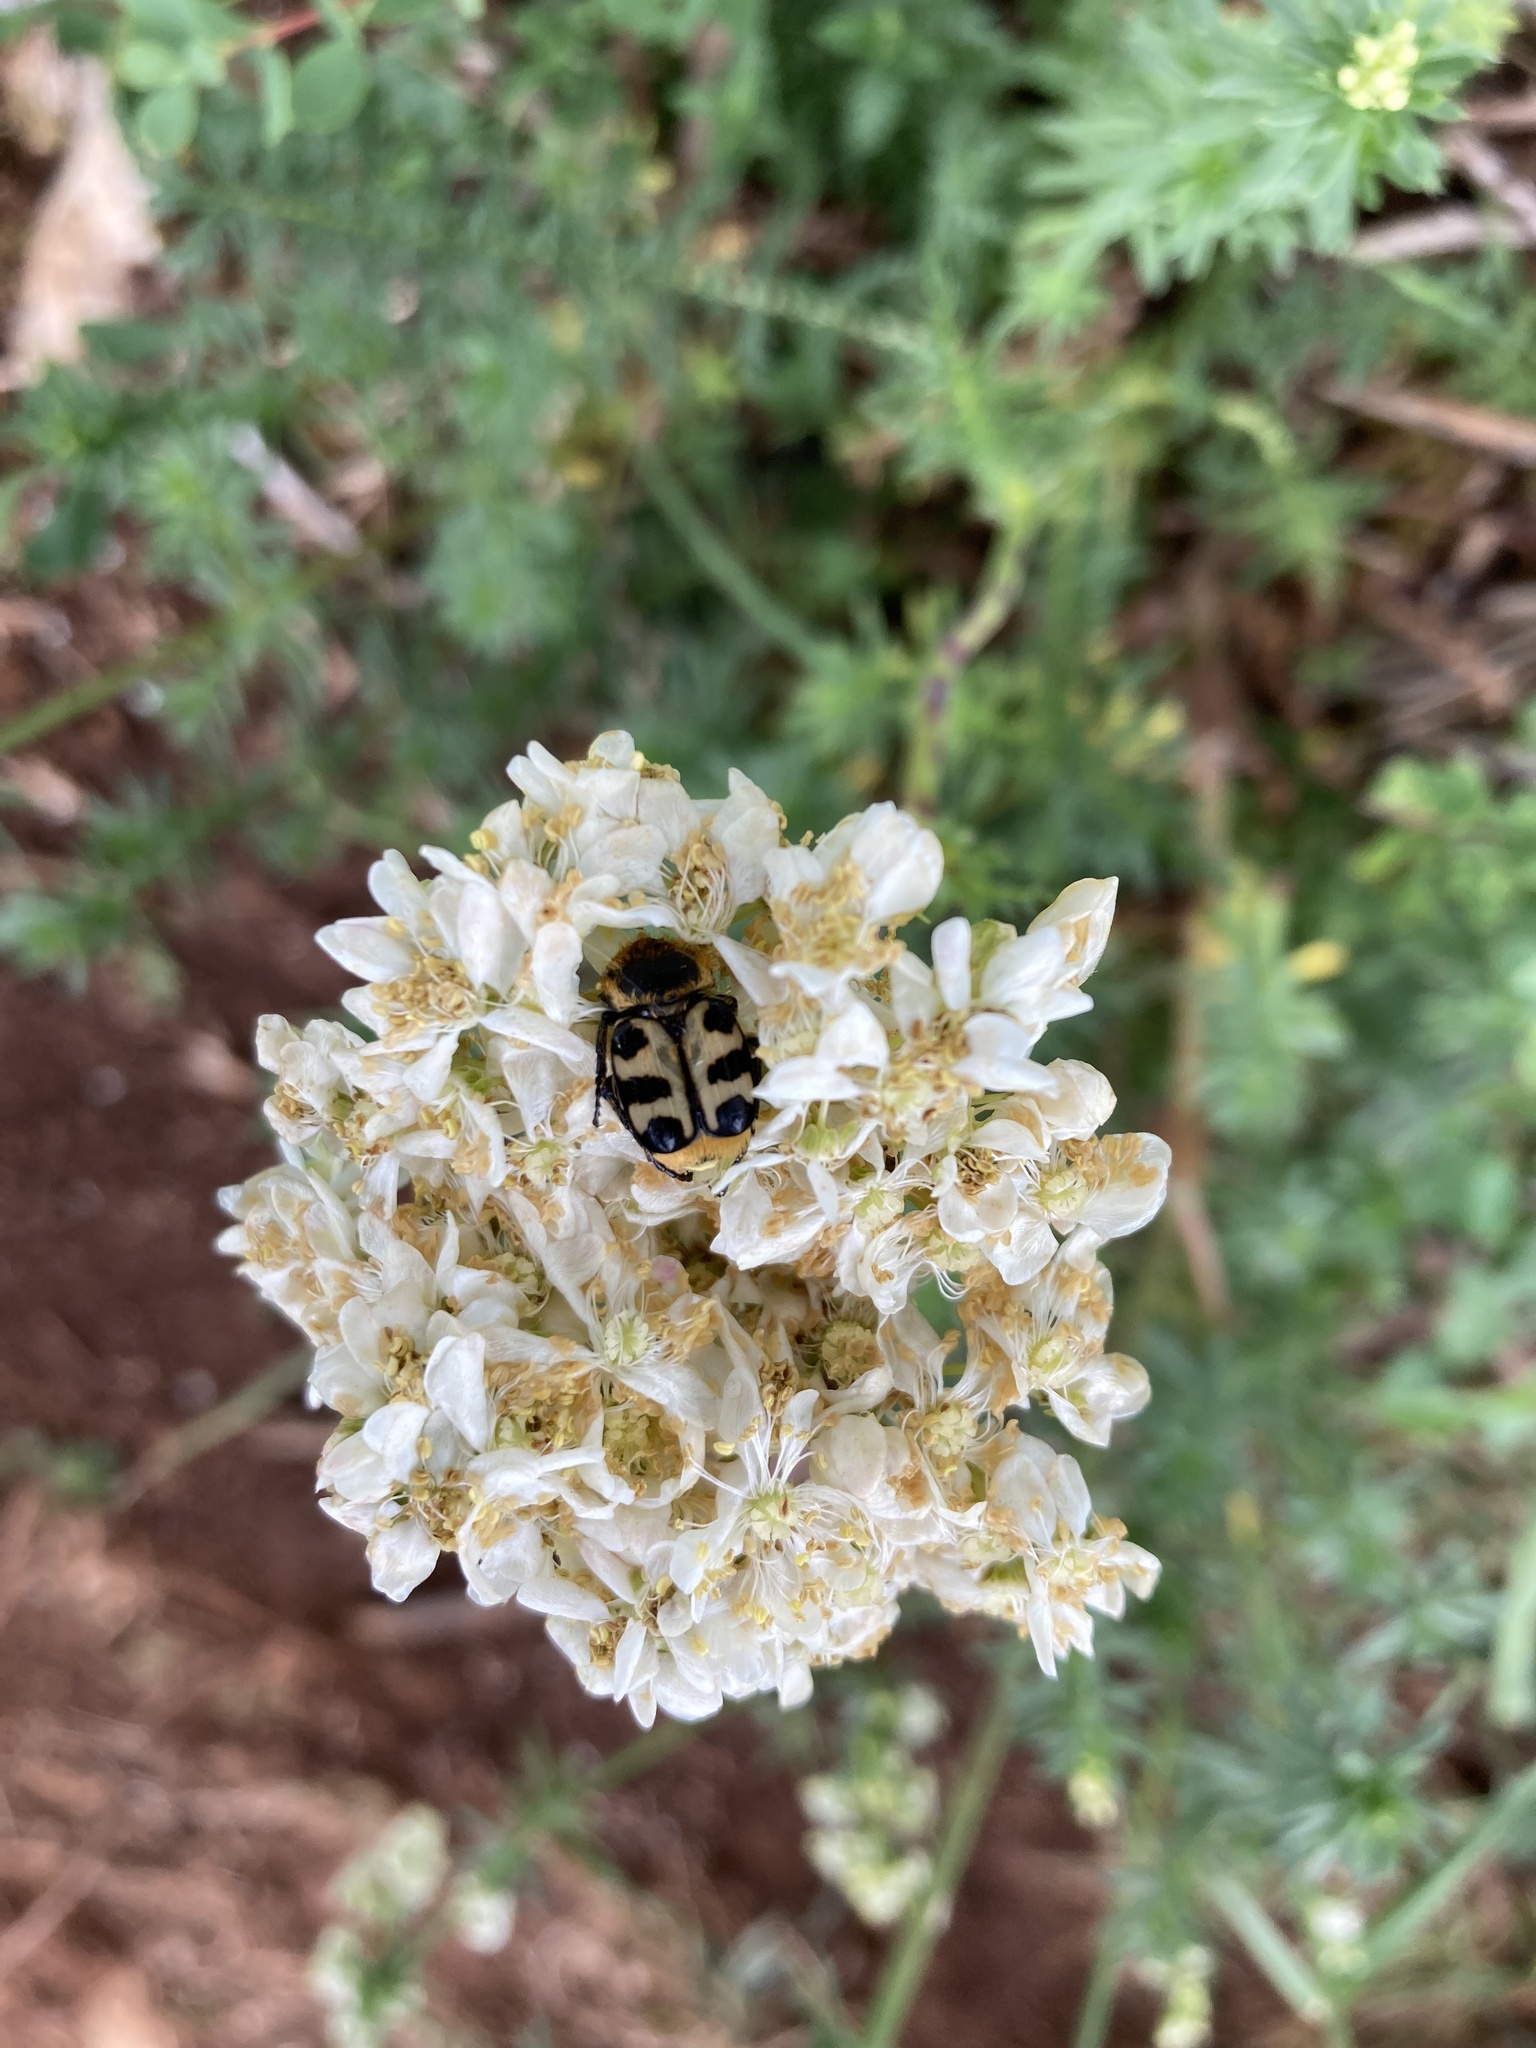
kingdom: Animalia
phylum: Arthropoda
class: Insecta
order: Coleoptera
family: Scarabaeidae
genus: Trichius
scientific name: Trichius gallicus
